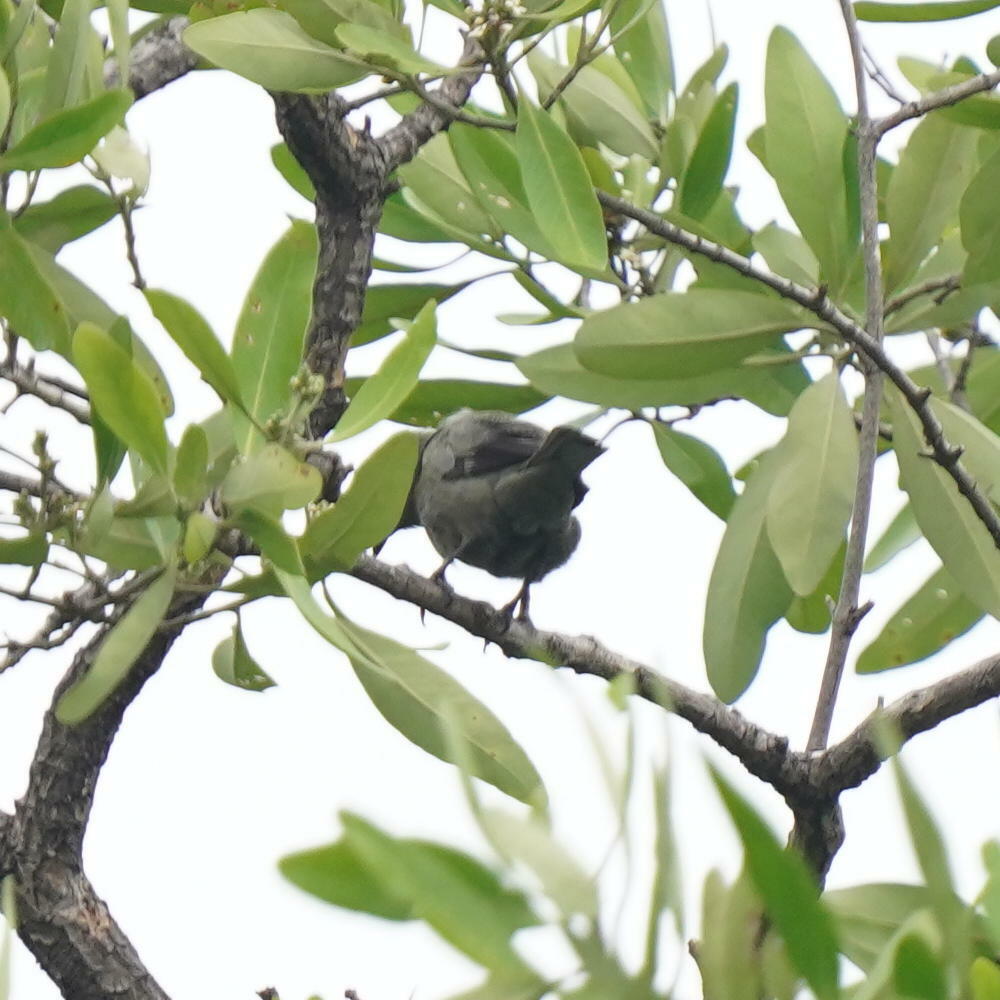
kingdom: Animalia
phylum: Chordata
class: Aves
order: Passeriformes
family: Thraupidae
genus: Thraupis
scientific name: Thraupis palmarum
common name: Palm tanager
